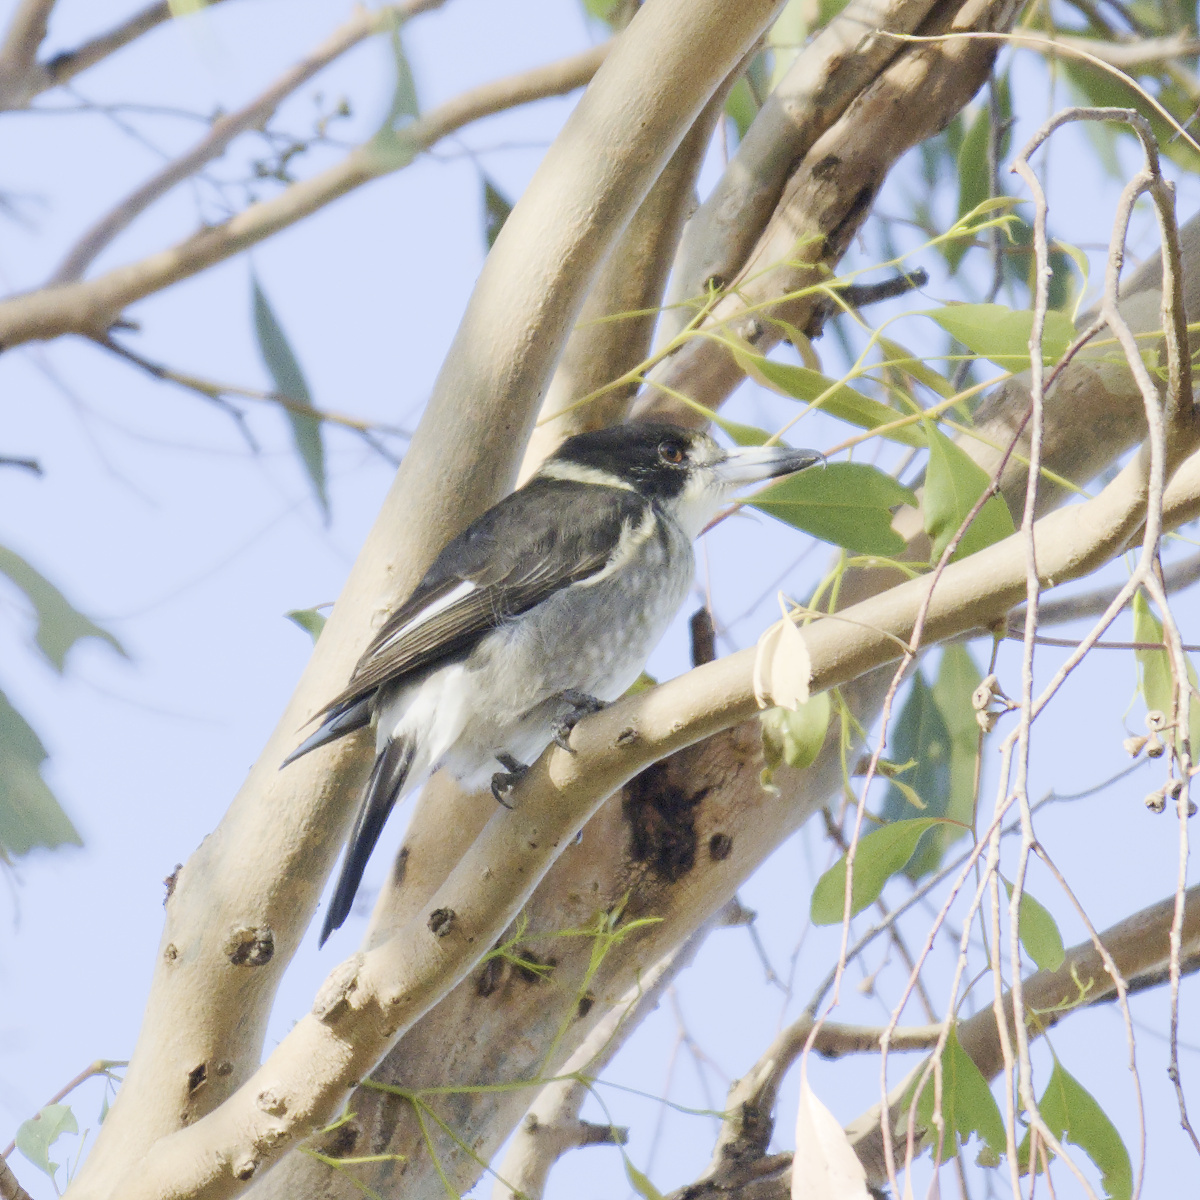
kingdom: Animalia
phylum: Chordata
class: Aves
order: Passeriformes
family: Cracticidae
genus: Cracticus
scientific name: Cracticus torquatus
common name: Grey butcherbird
